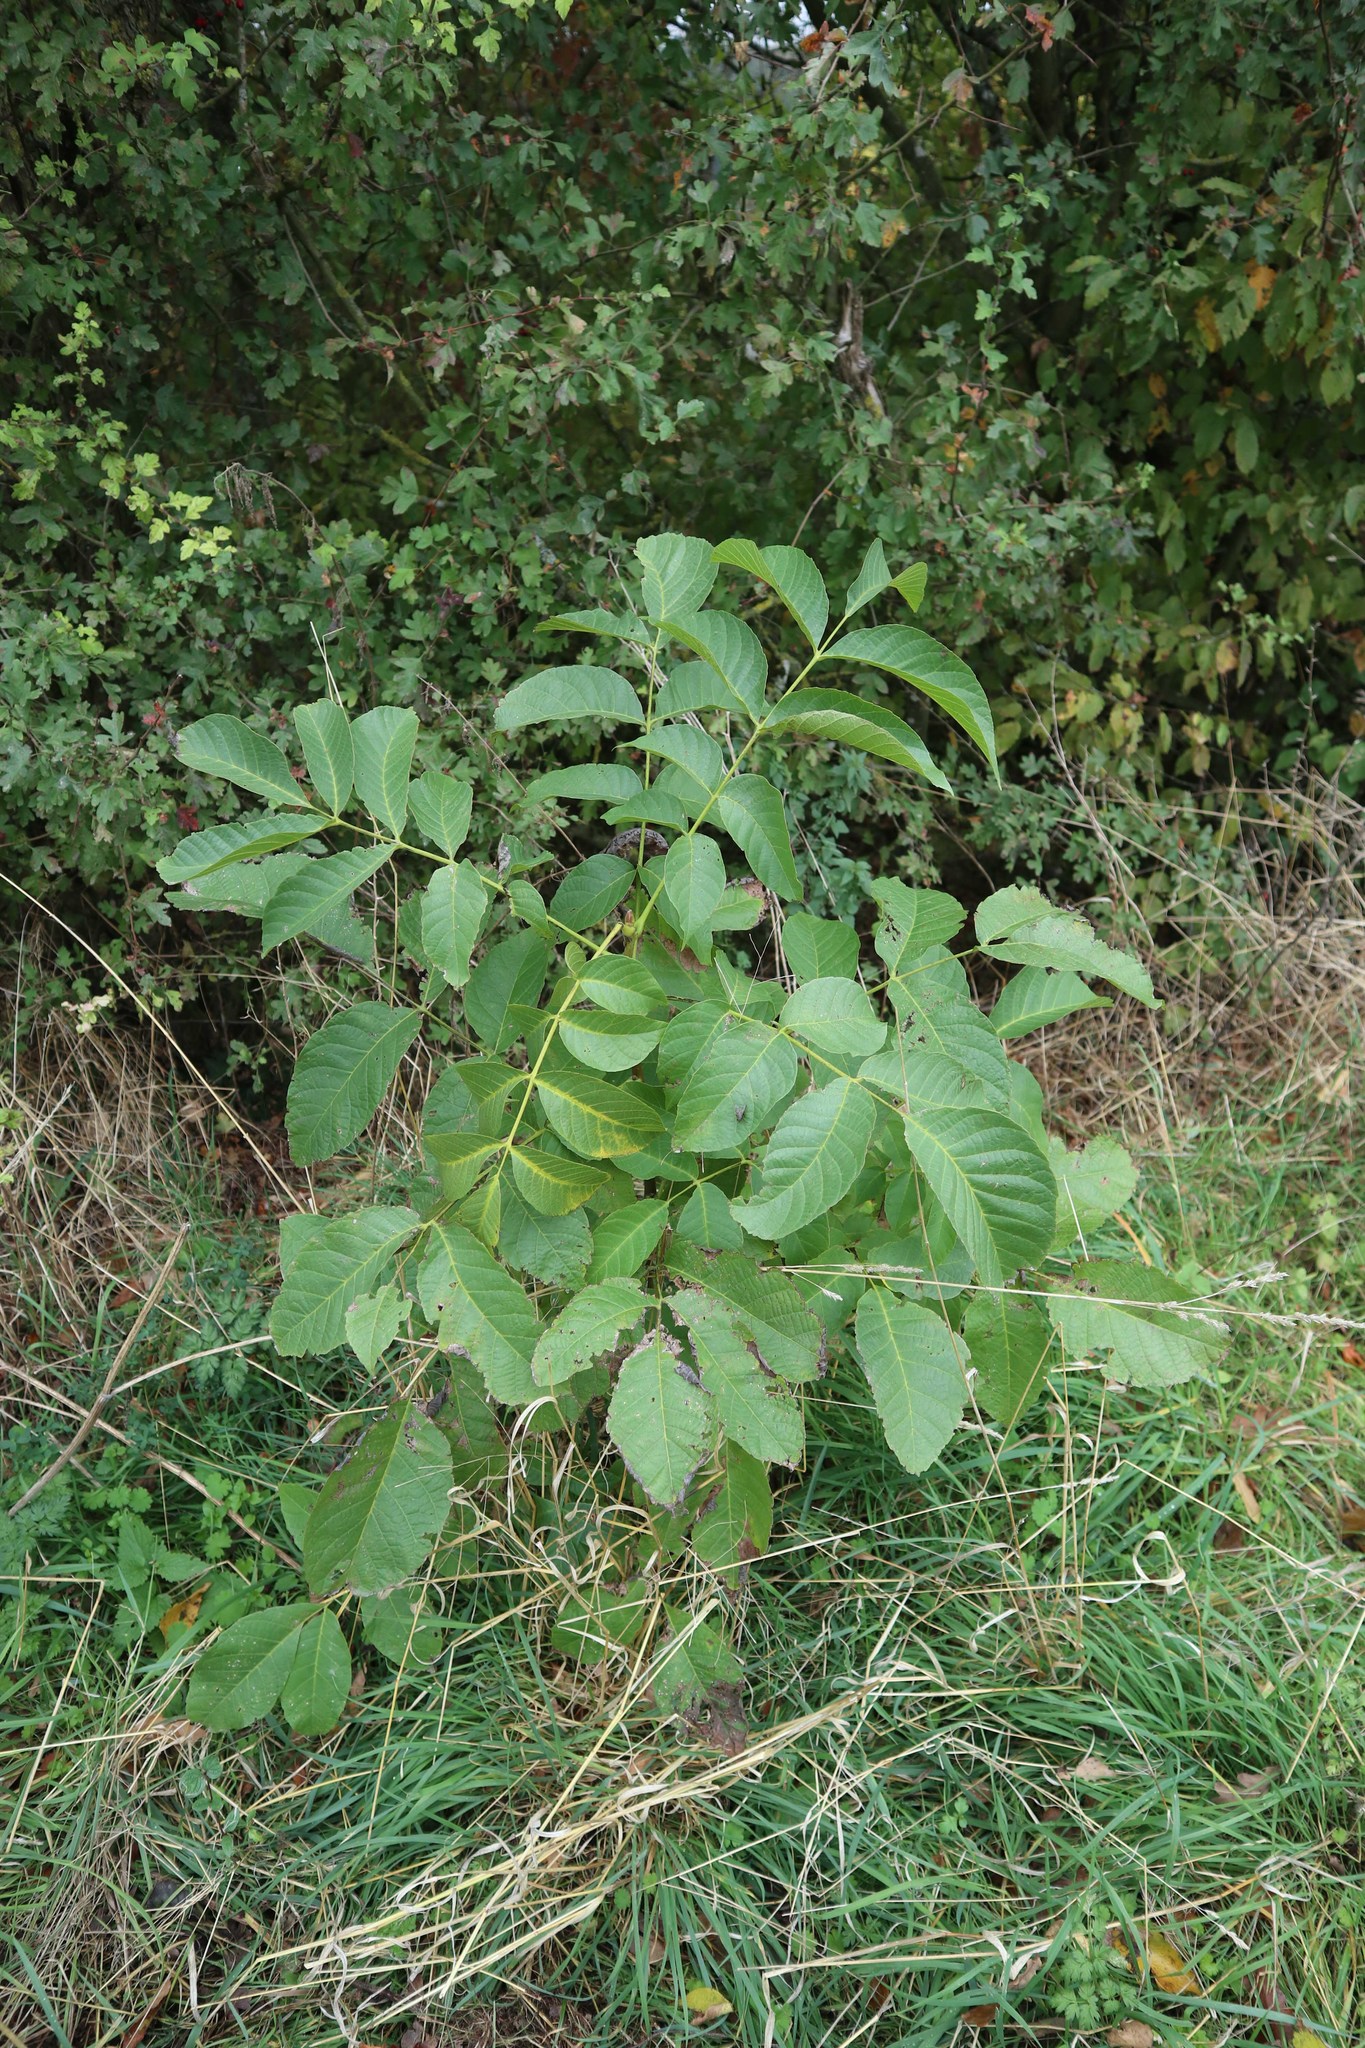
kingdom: Plantae
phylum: Tracheophyta
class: Magnoliopsida
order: Fagales
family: Juglandaceae
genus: Juglans
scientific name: Juglans regia
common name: Walnut
